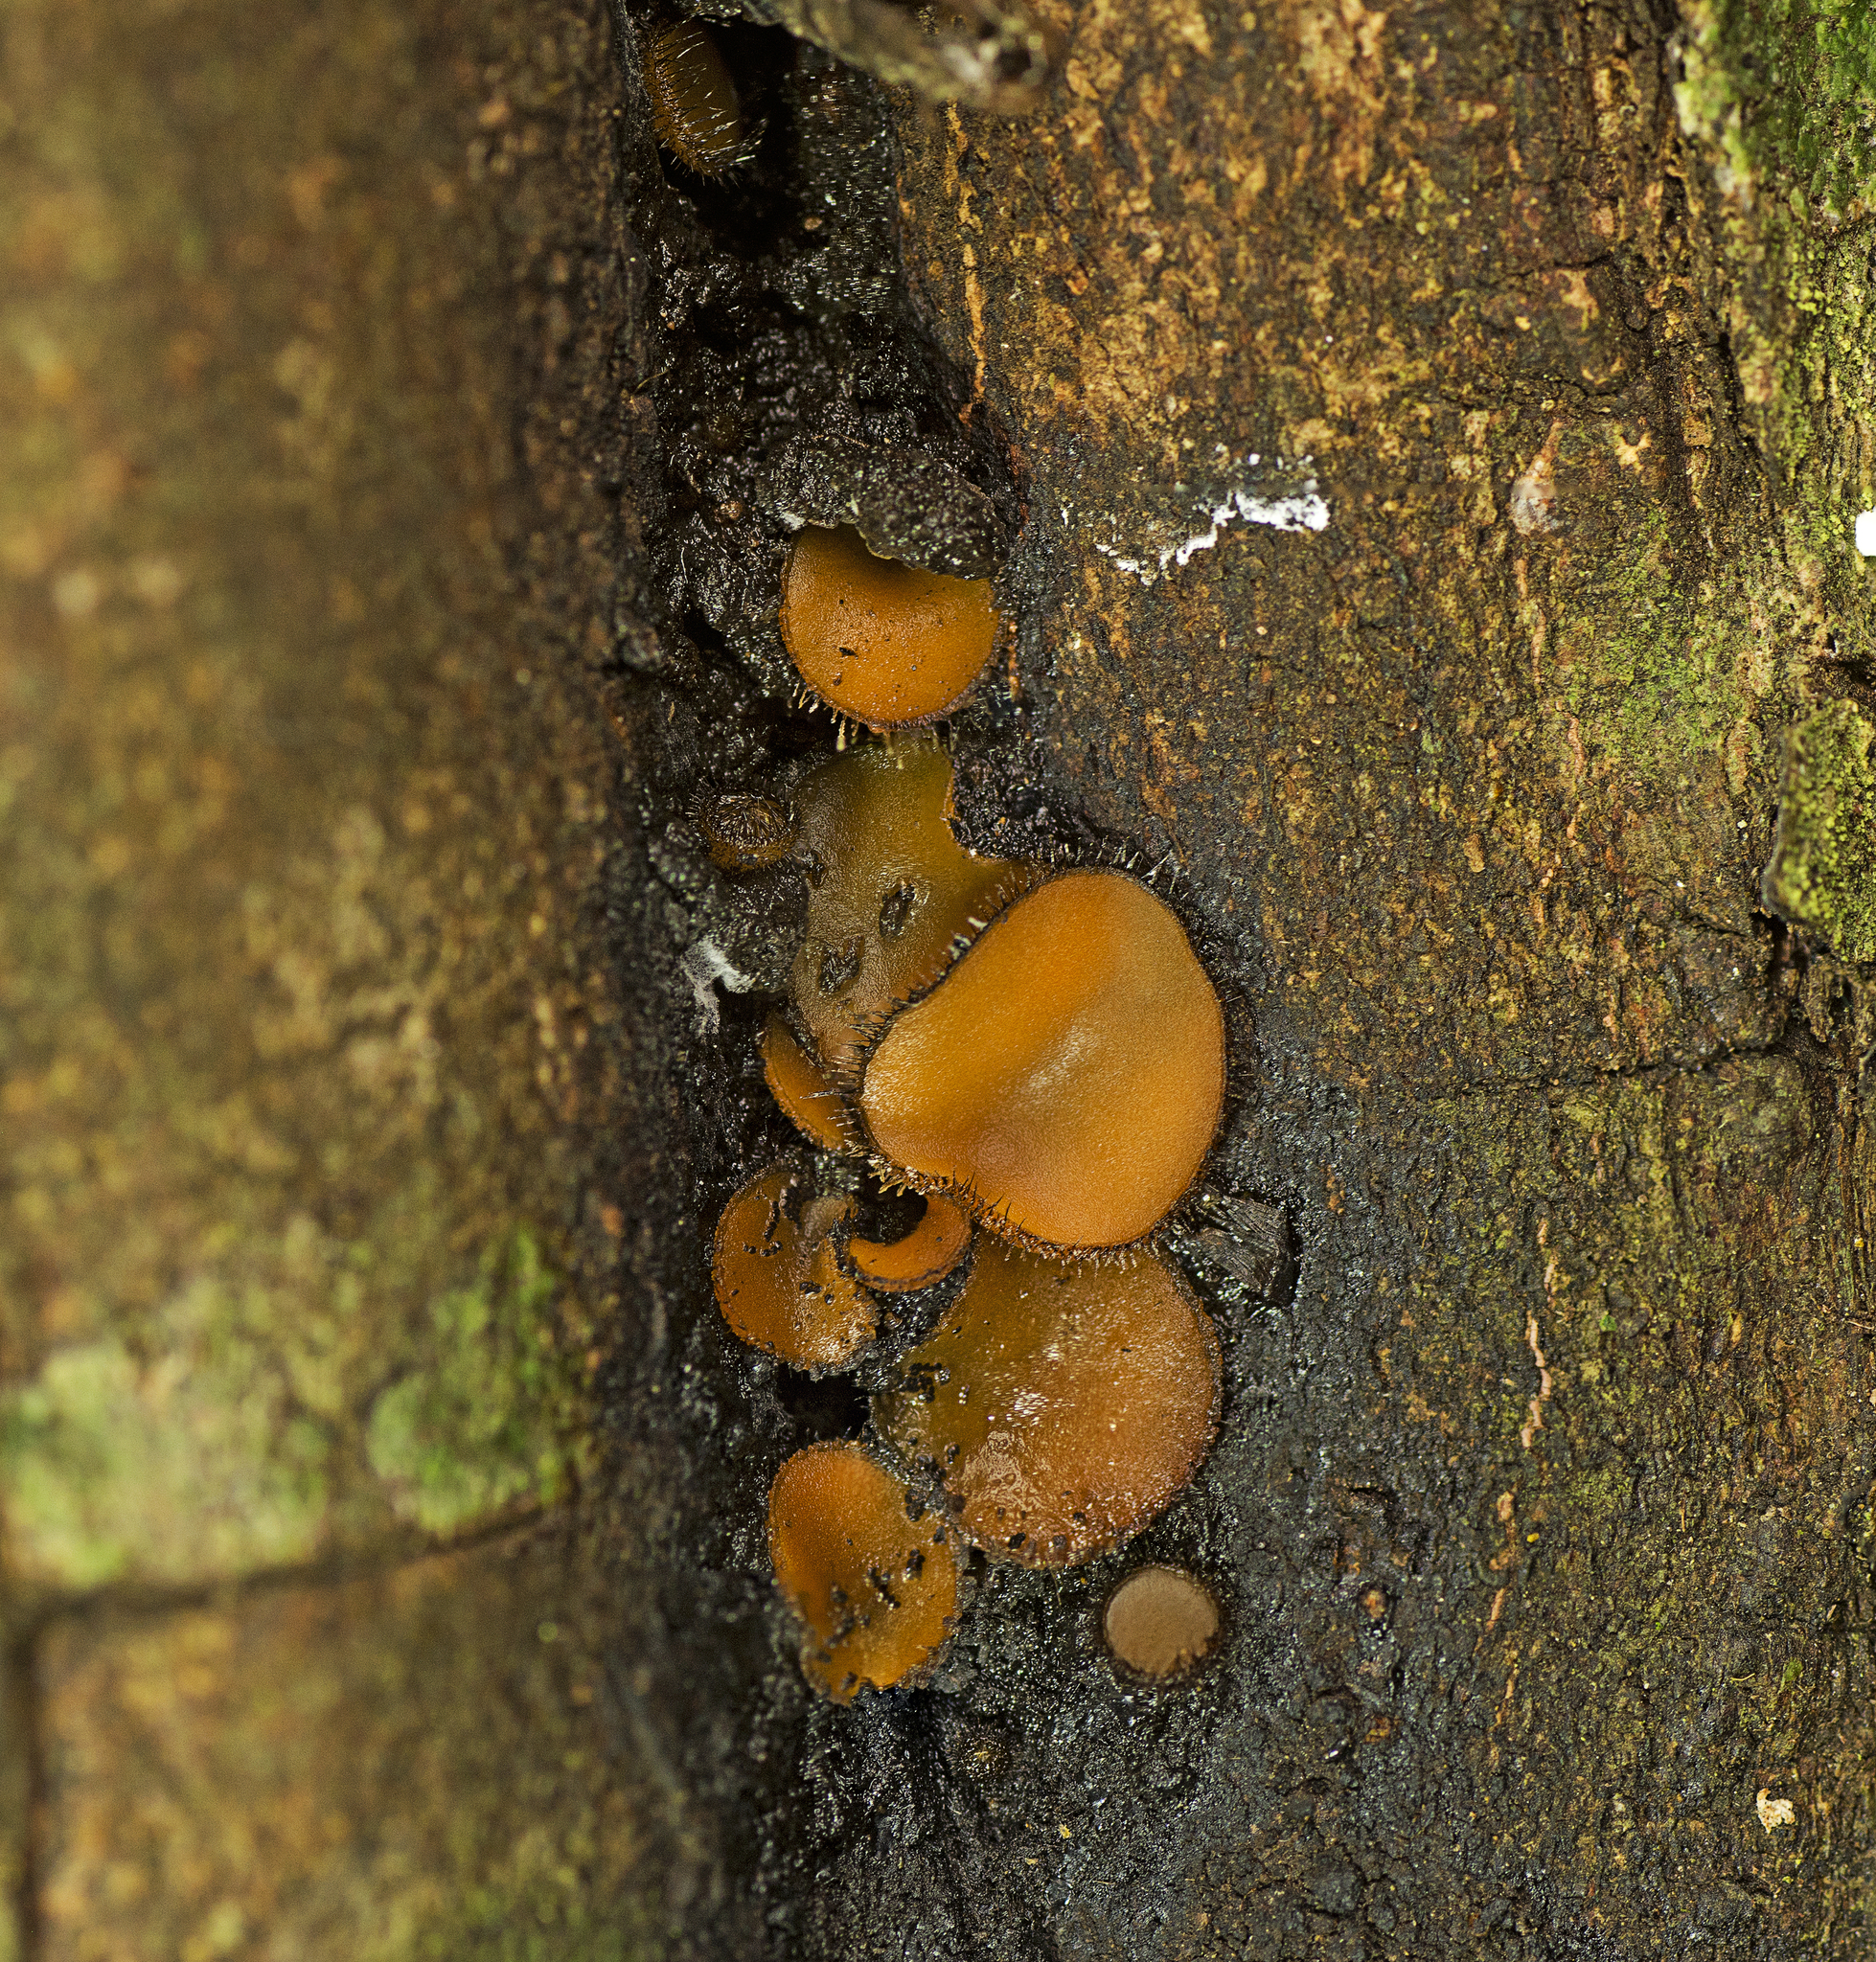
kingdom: Fungi
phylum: Ascomycota
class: Pezizomycetes
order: Pezizales
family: Pyronemataceae
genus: Scutellinia
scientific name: Scutellinia scutellata
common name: Common eyelash
